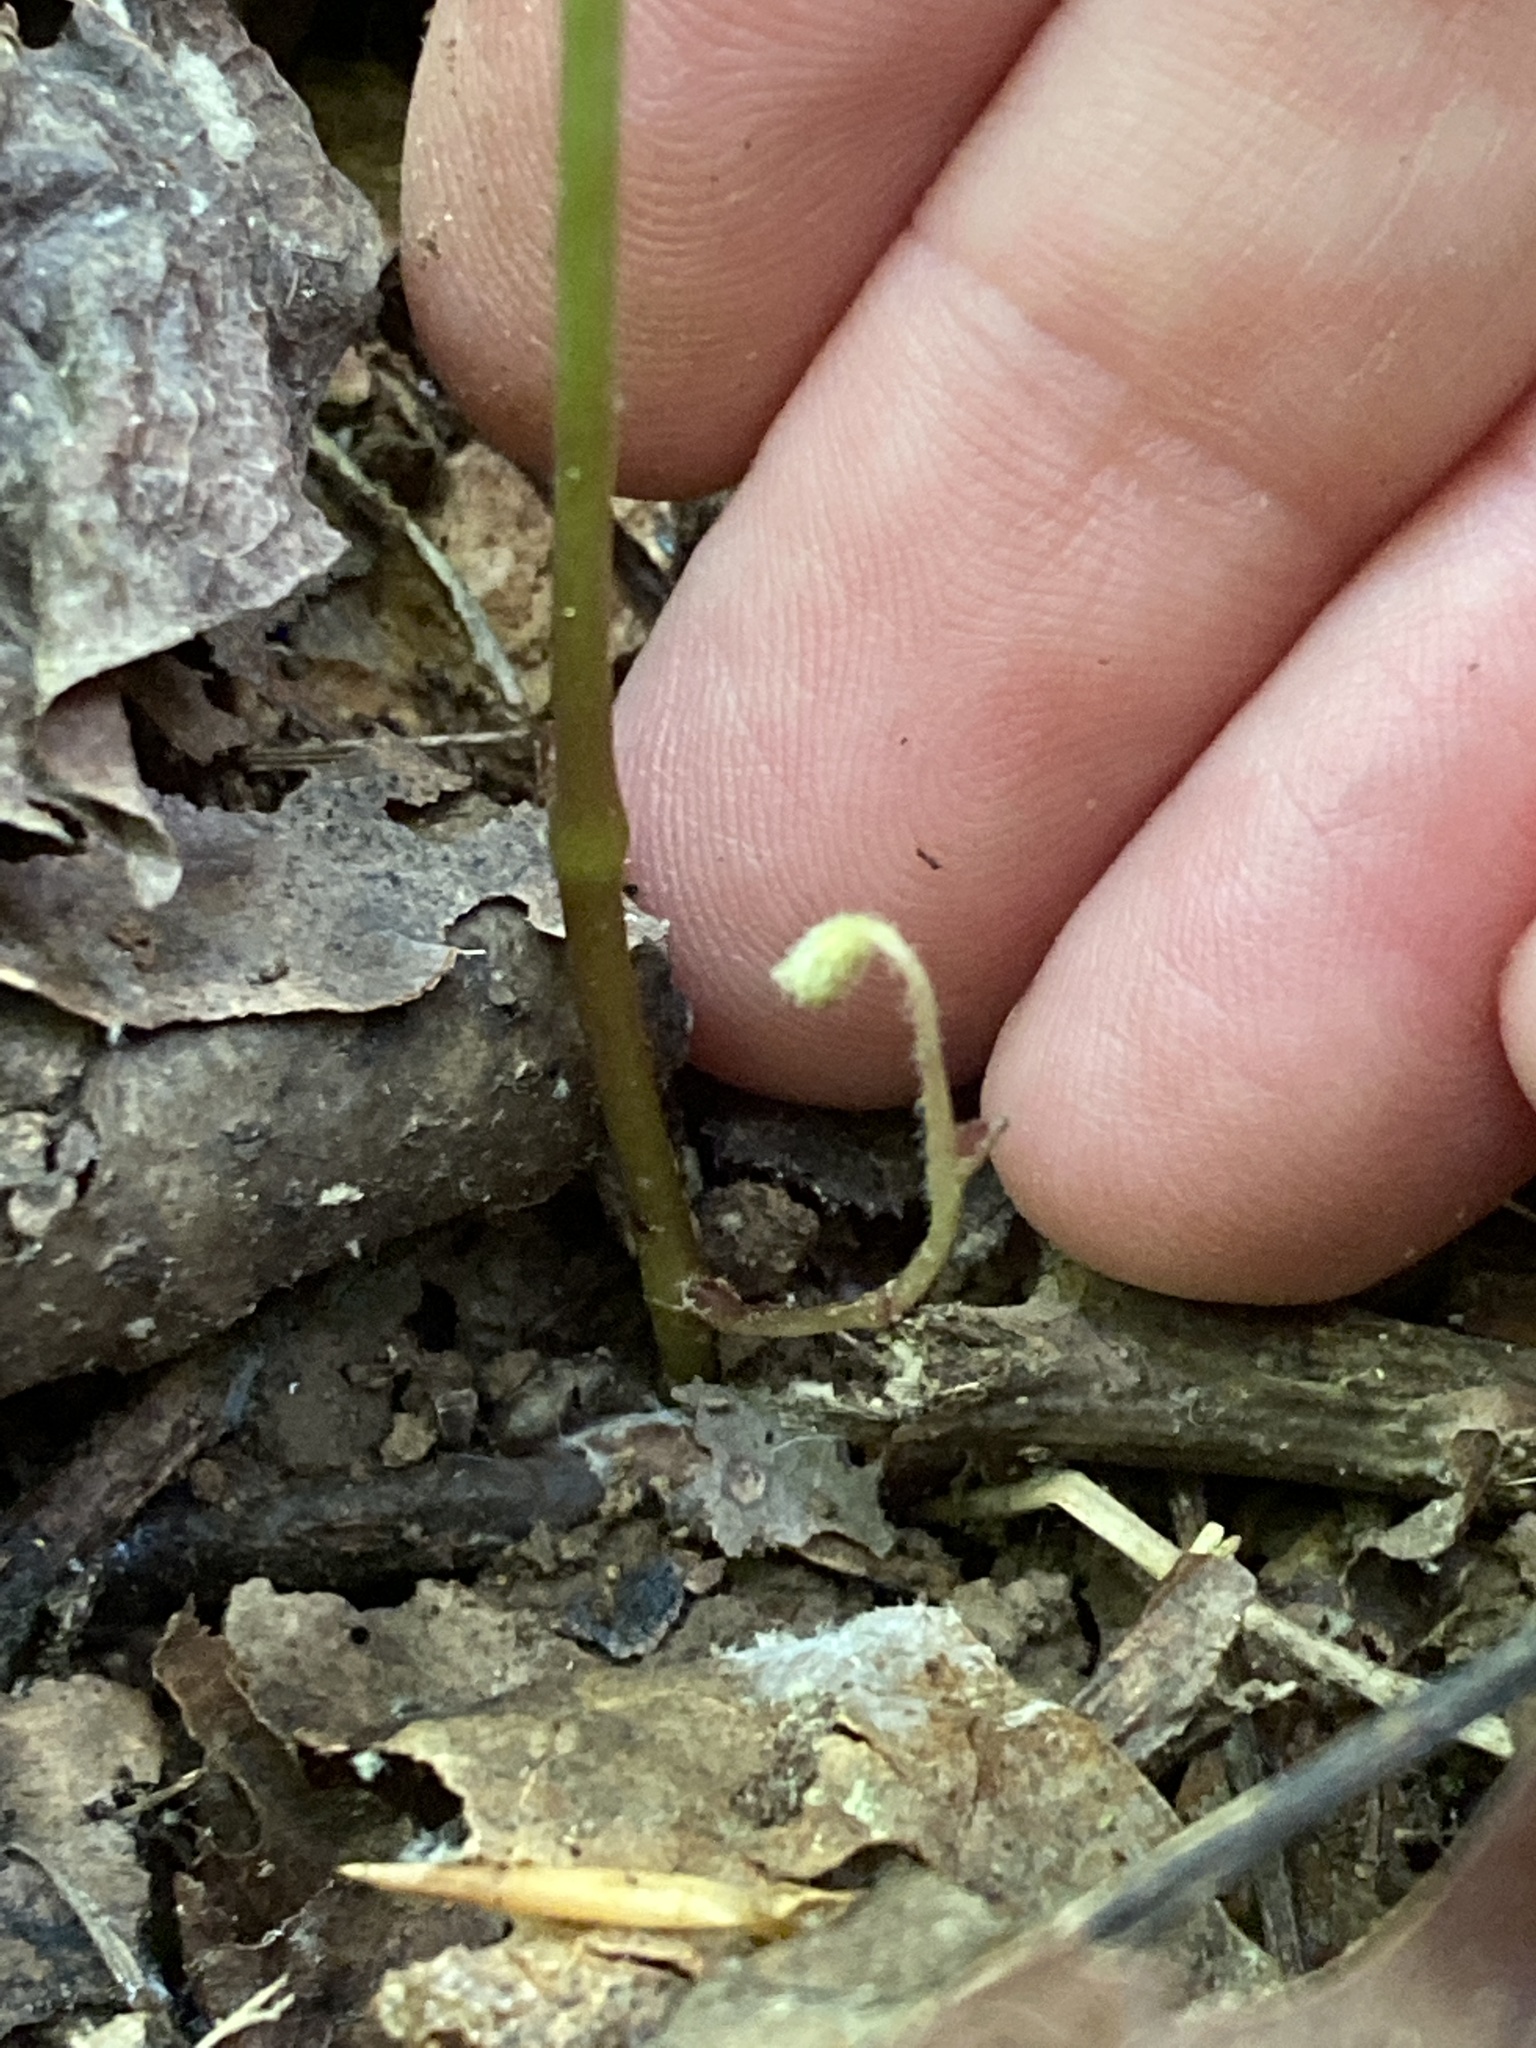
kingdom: Plantae
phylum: Tracheophyta
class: Magnoliopsida
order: Piperales
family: Aristolochiaceae
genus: Endodeca
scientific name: Endodeca serpentaria
